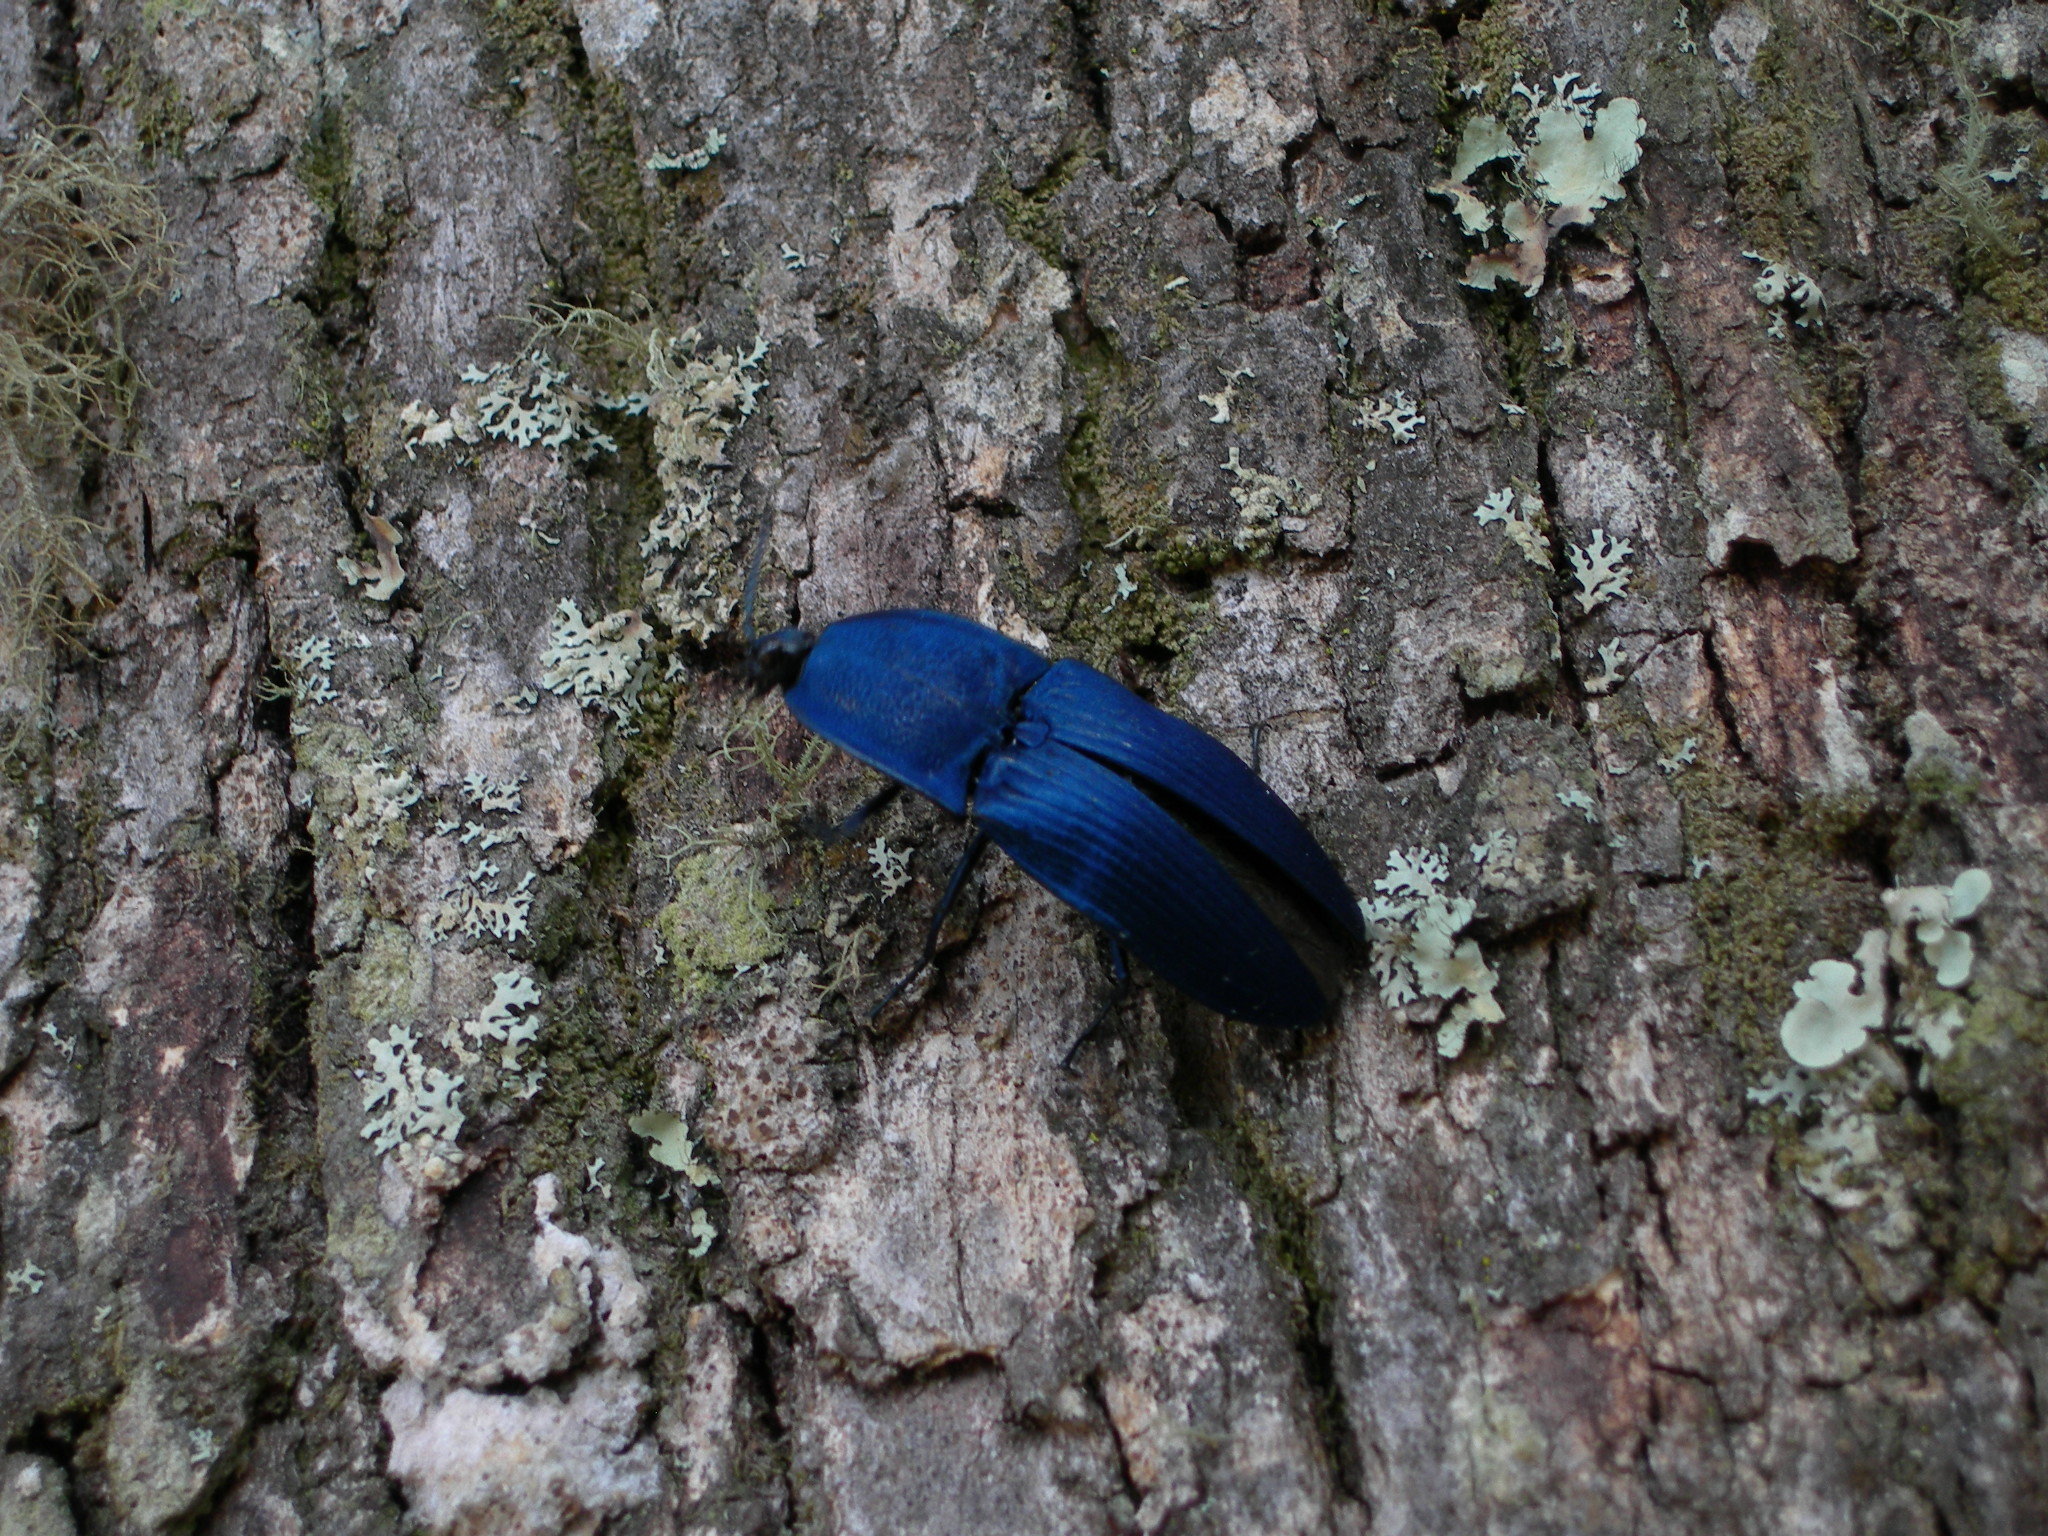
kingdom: Animalia
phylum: Arthropoda
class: Insecta
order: Coleoptera
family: Elateridae
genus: Chalcolepidius
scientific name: Chalcolepidius lacordairei
